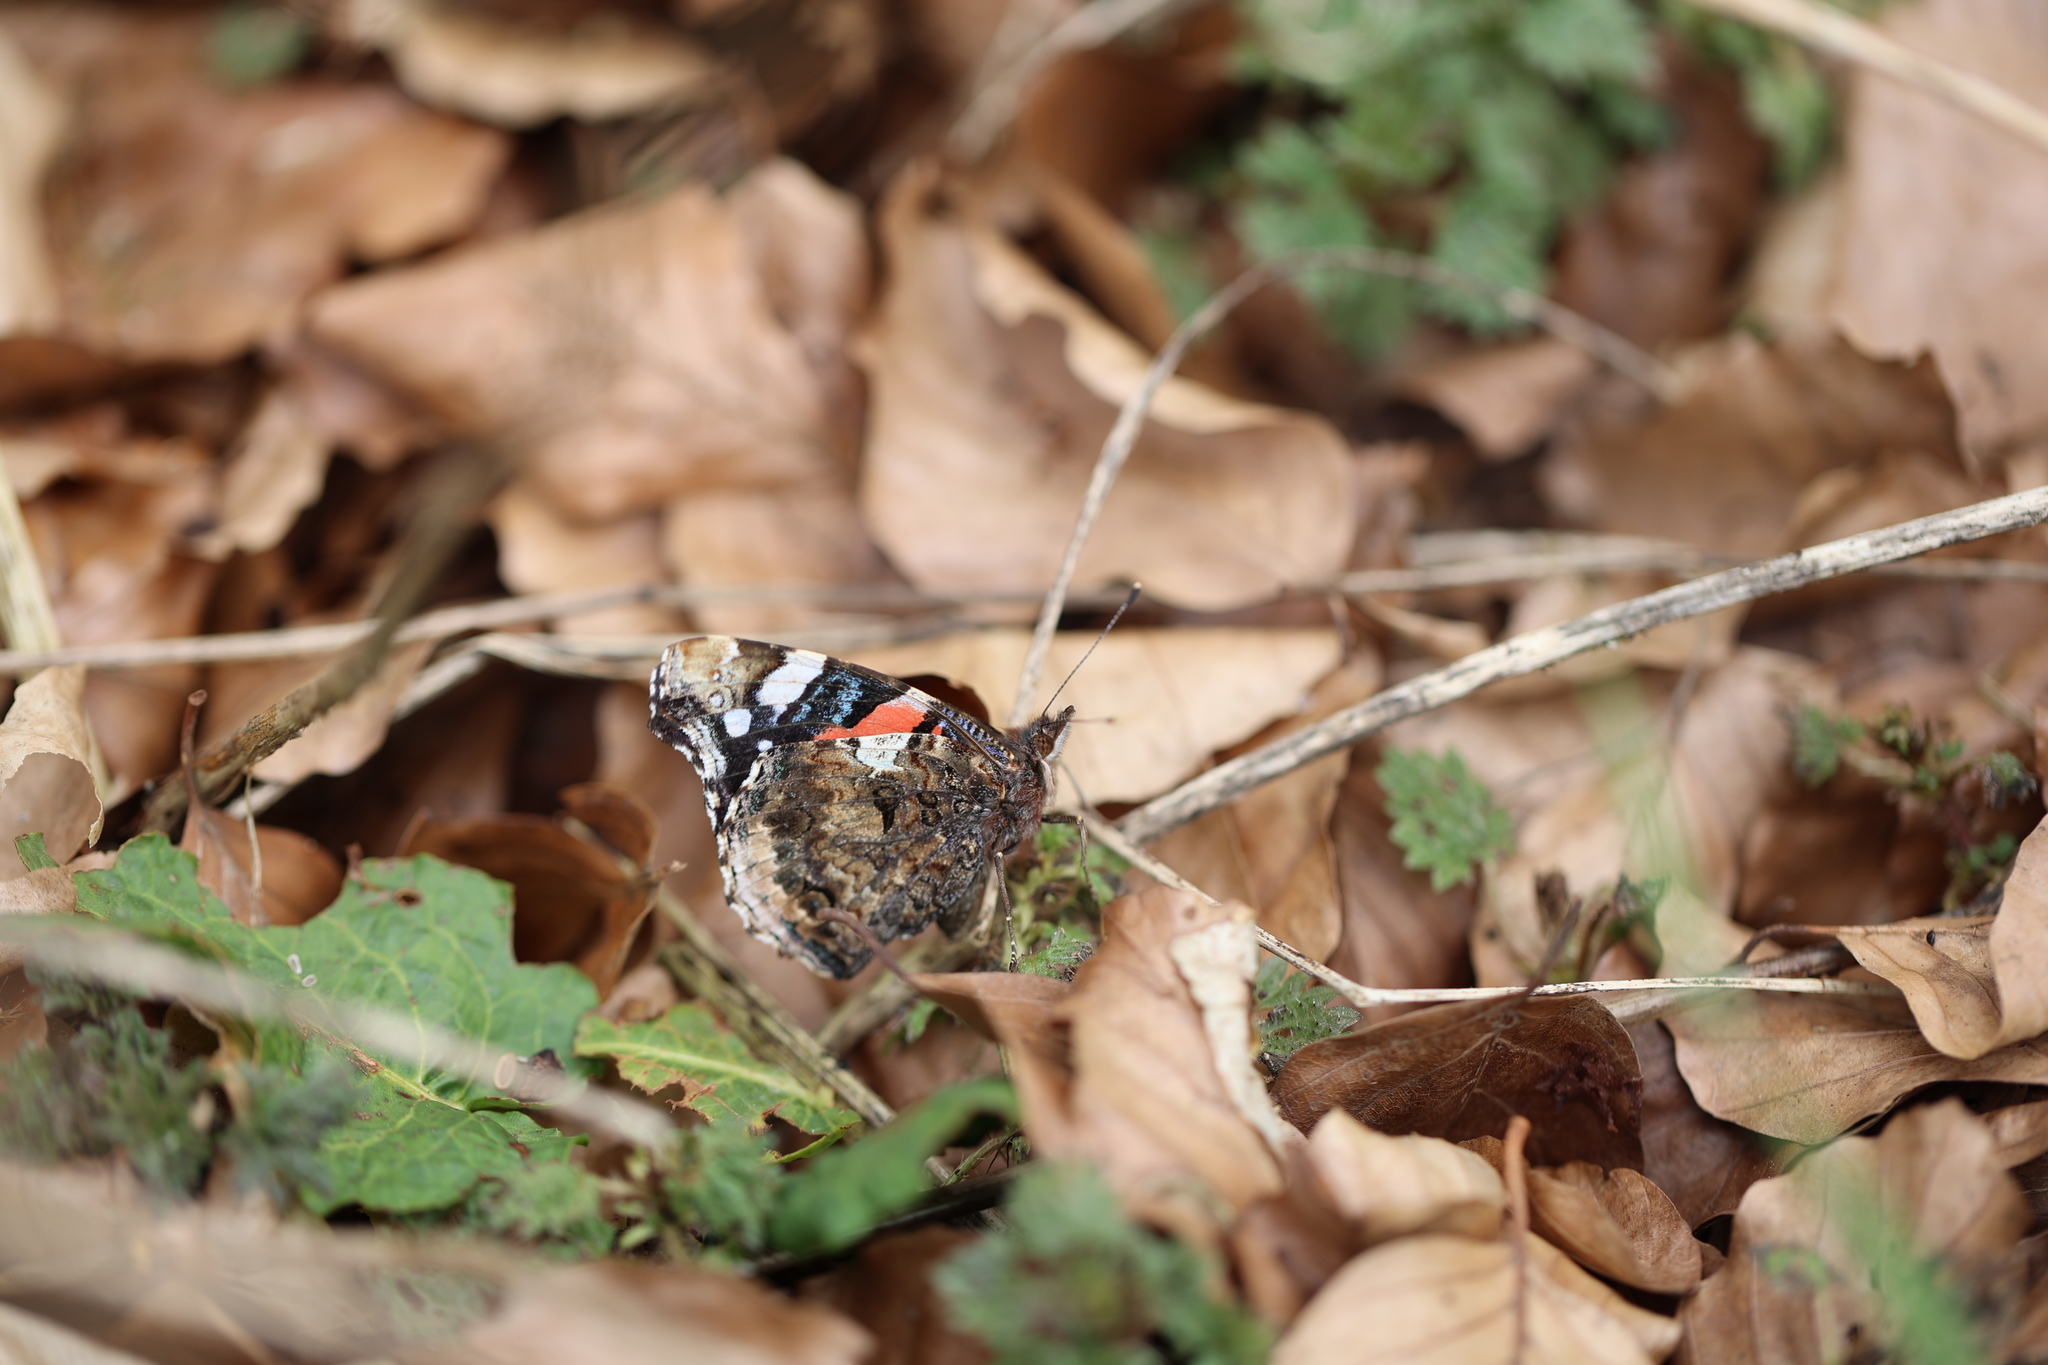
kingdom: Animalia
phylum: Arthropoda
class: Insecta
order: Lepidoptera
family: Nymphalidae
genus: Vanessa
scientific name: Vanessa atalanta
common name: Red admiral
